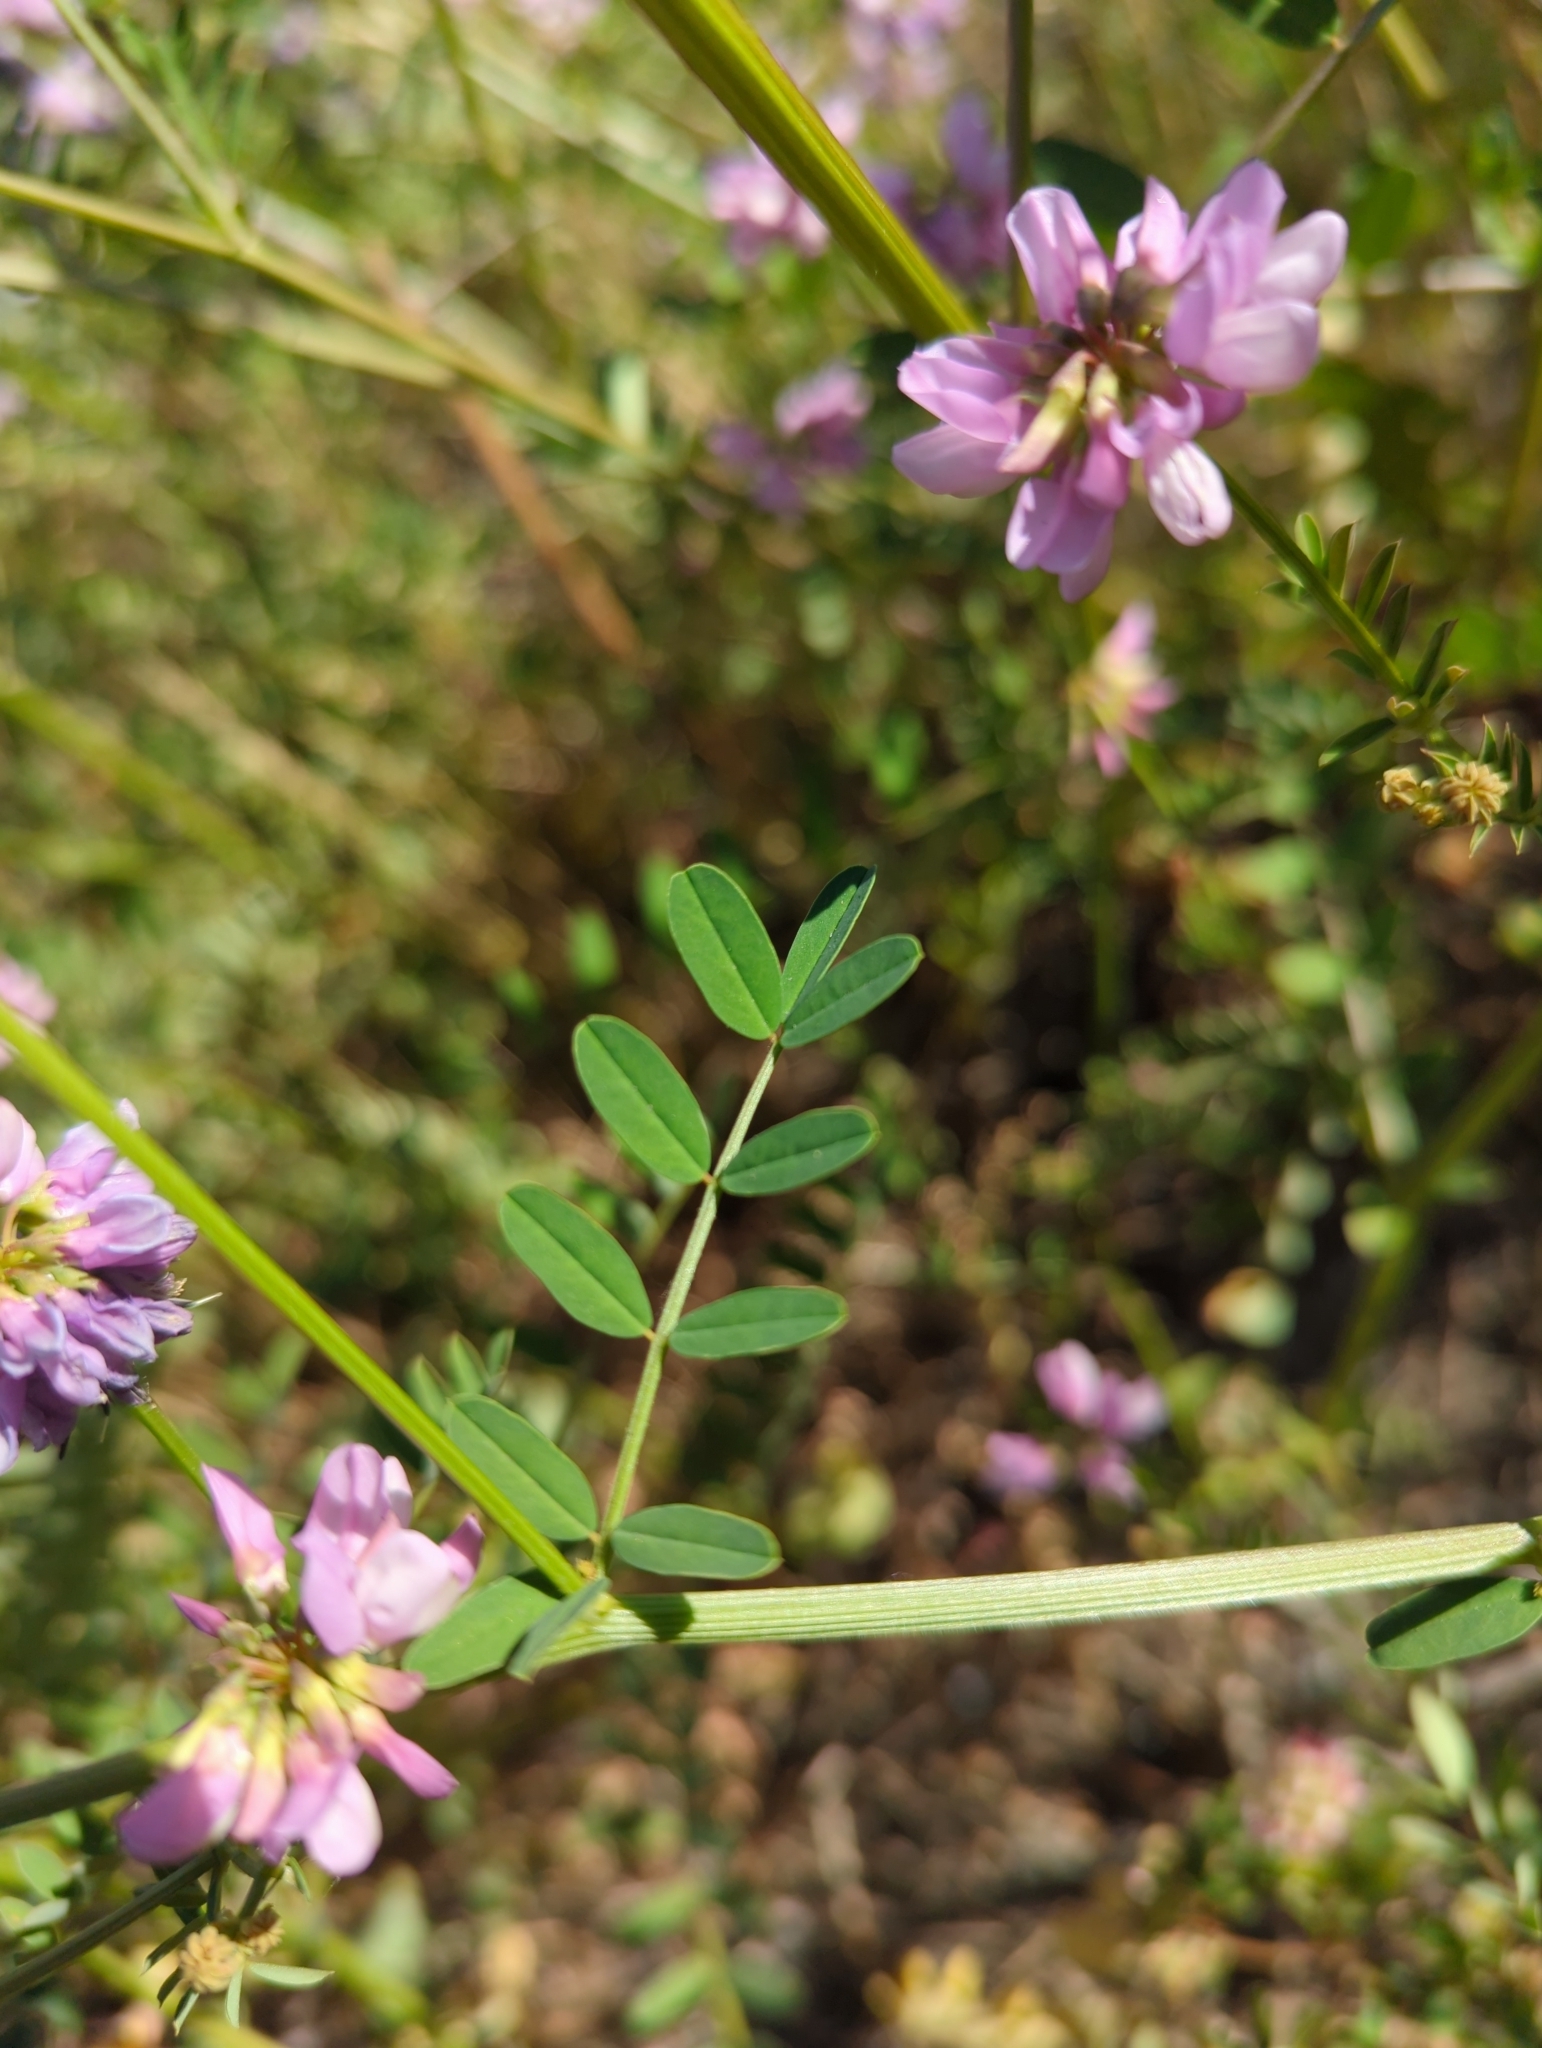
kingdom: Plantae
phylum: Tracheophyta
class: Magnoliopsida
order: Fabales
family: Fabaceae
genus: Coronilla
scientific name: Coronilla varia
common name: Crownvetch
